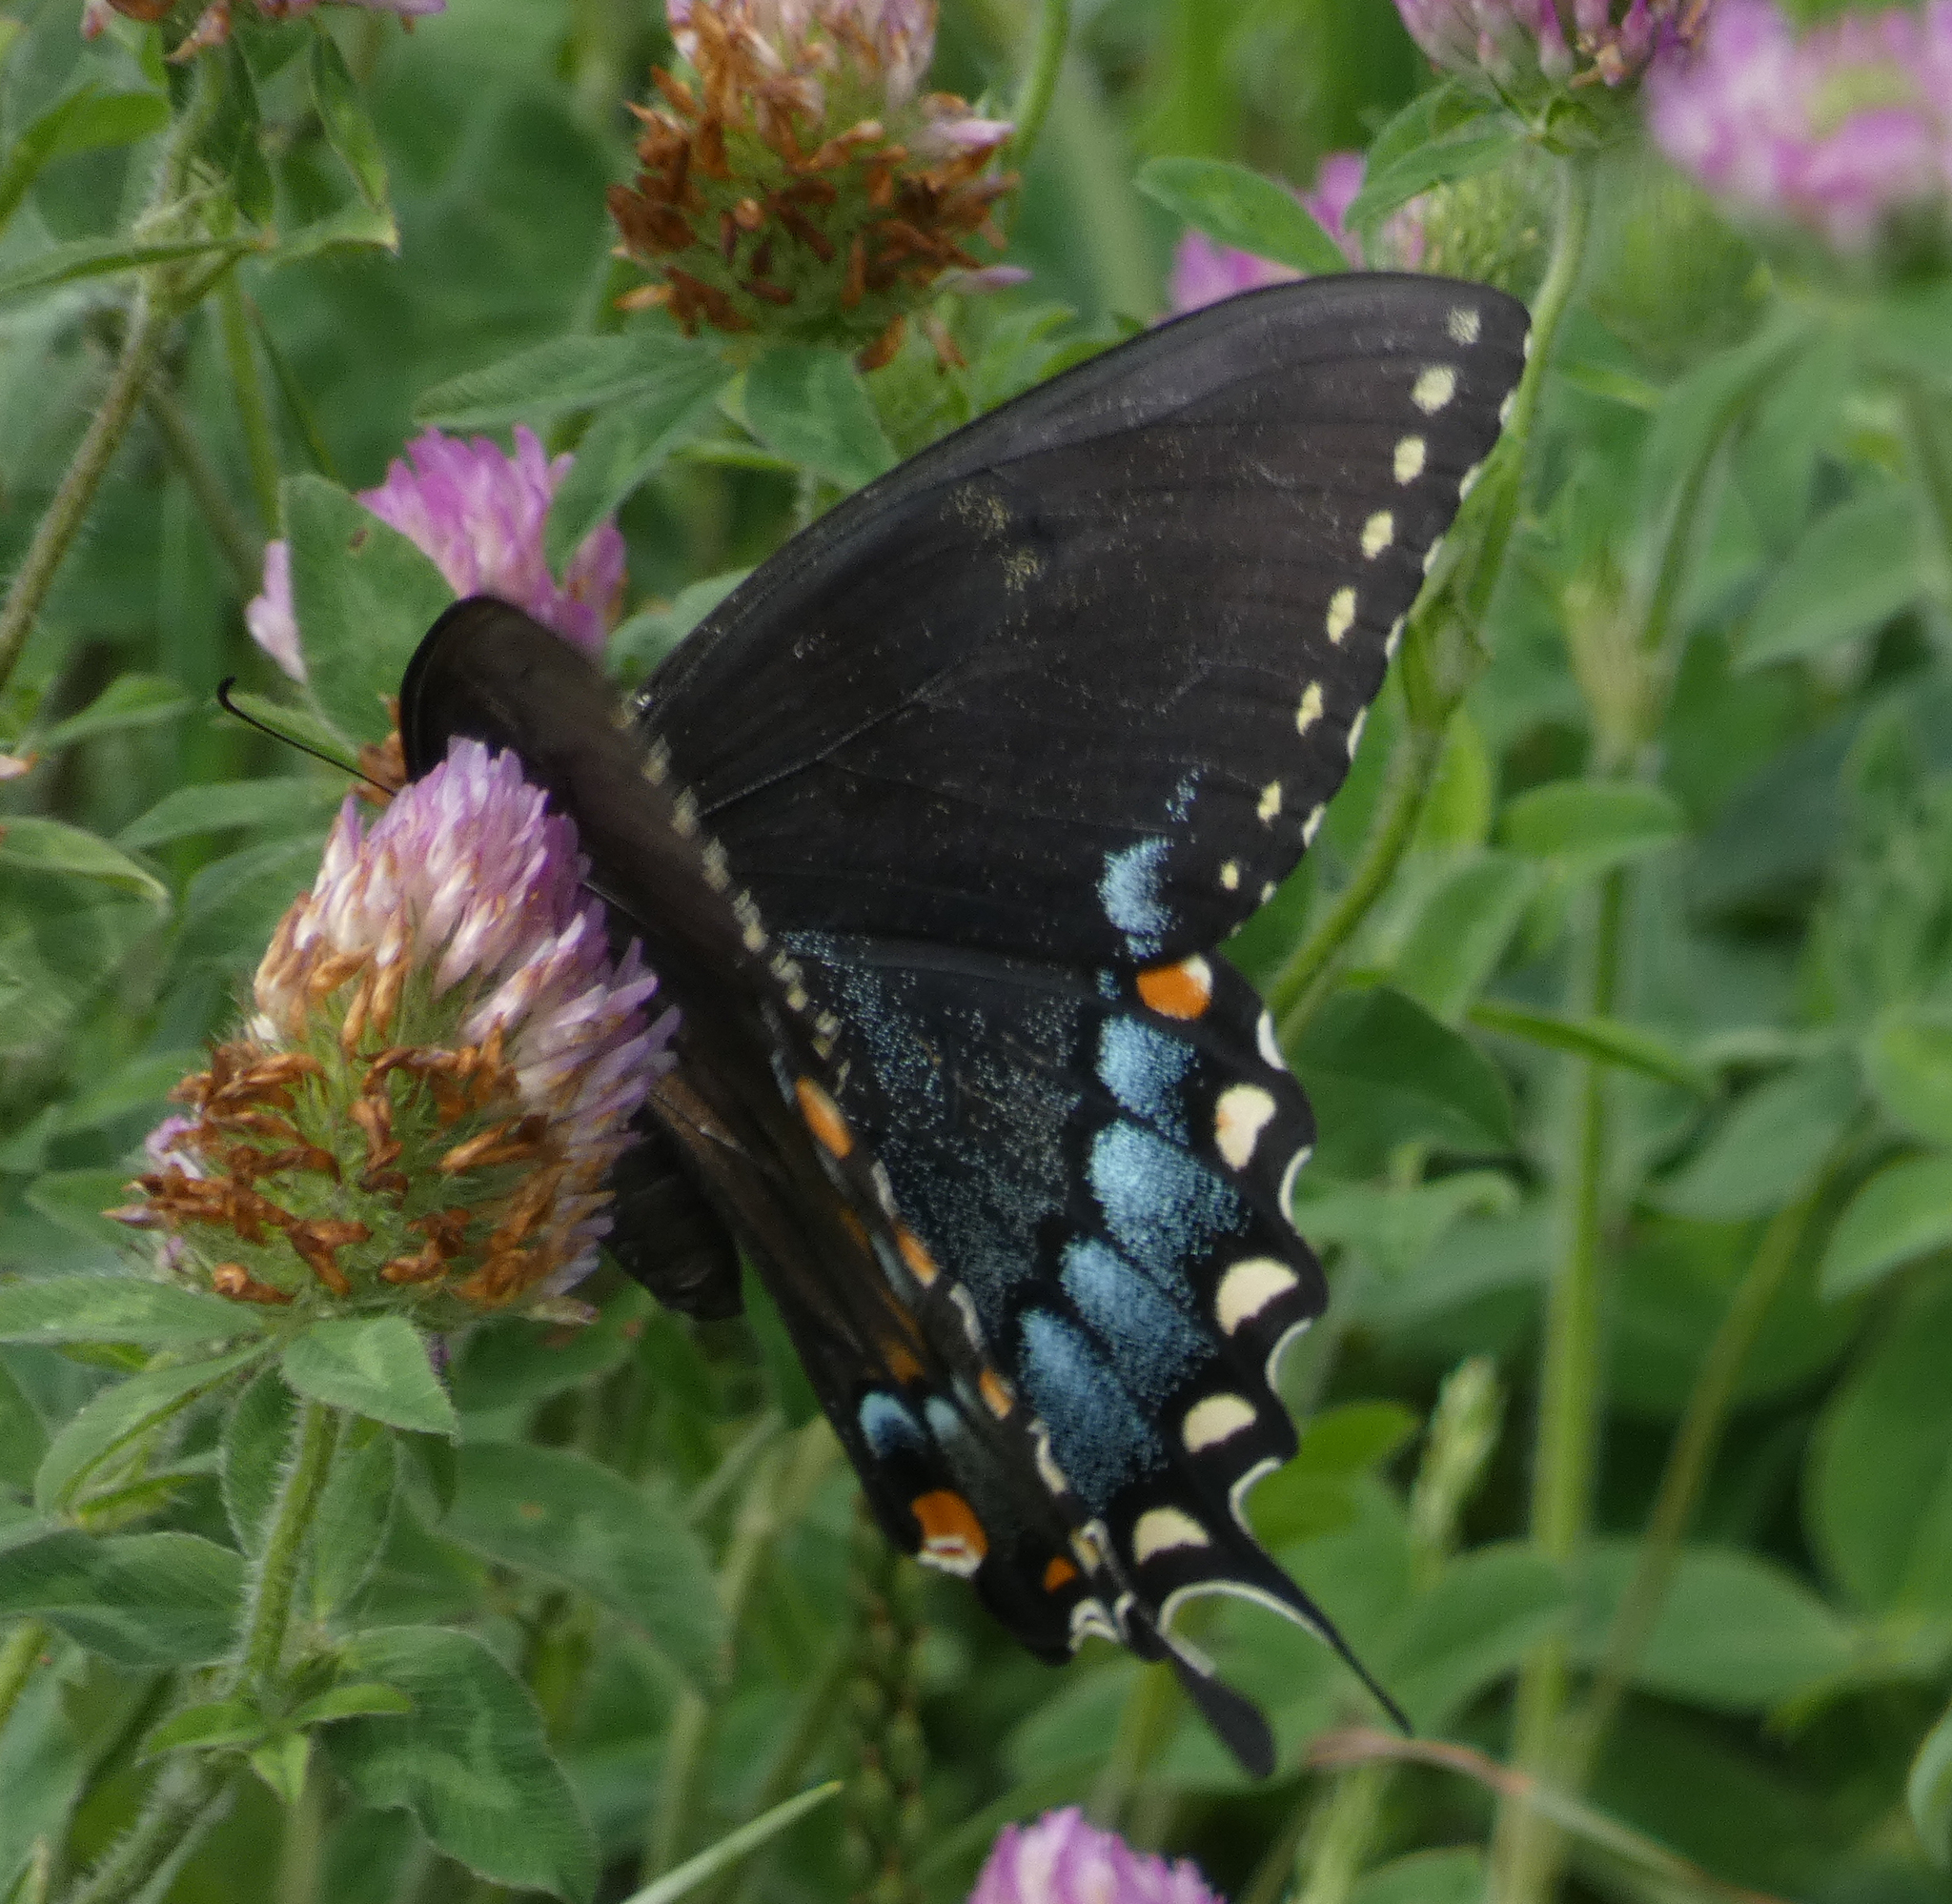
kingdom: Animalia
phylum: Arthropoda
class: Insecta
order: Lepidoptera
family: Papilionidae
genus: Papilio
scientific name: Papilio glaucus
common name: Tiger swallowtail
